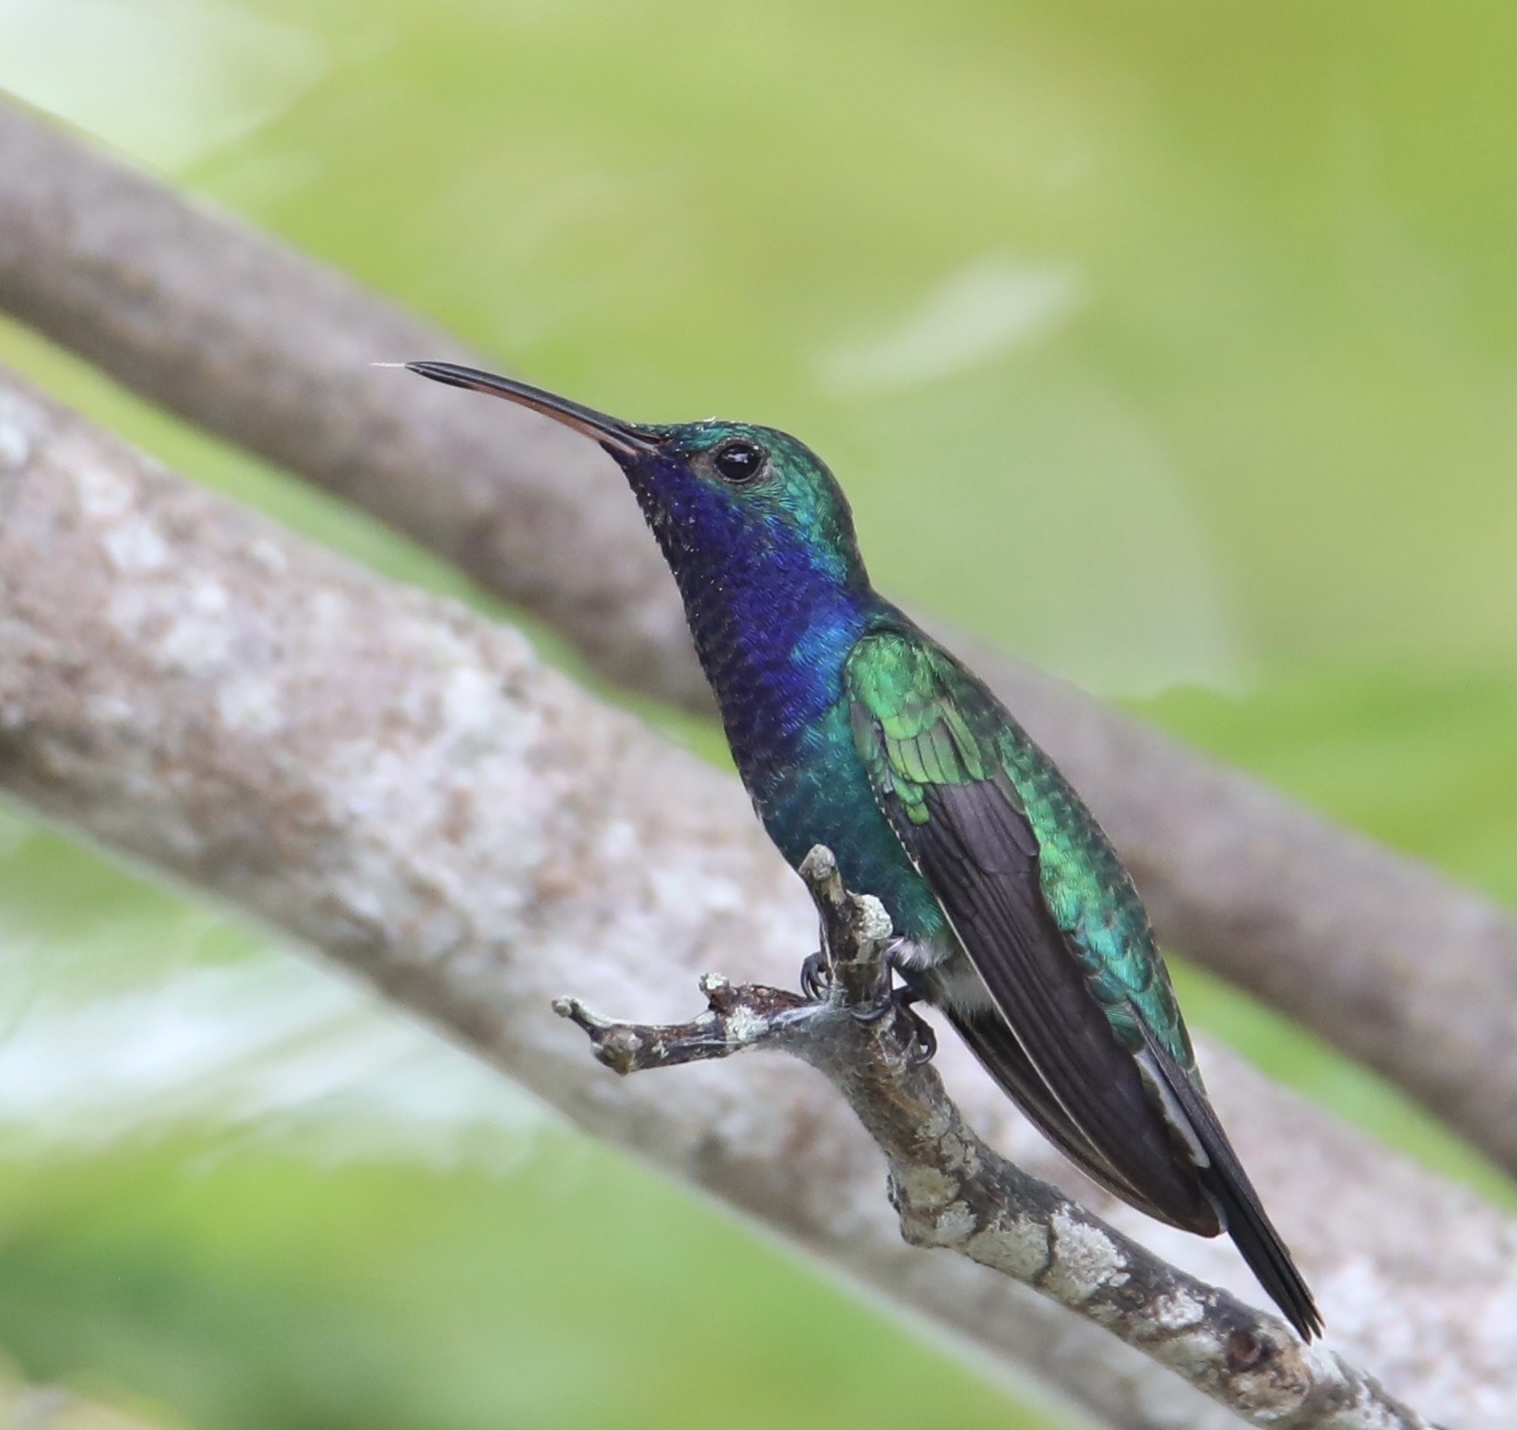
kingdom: Animalia
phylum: Chordata
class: Aves
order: Apodiformes
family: Trochilidae
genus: Chrysuronia
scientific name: Chrysuronia coeruleogularis
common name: Sapphire-throated hummingbird
